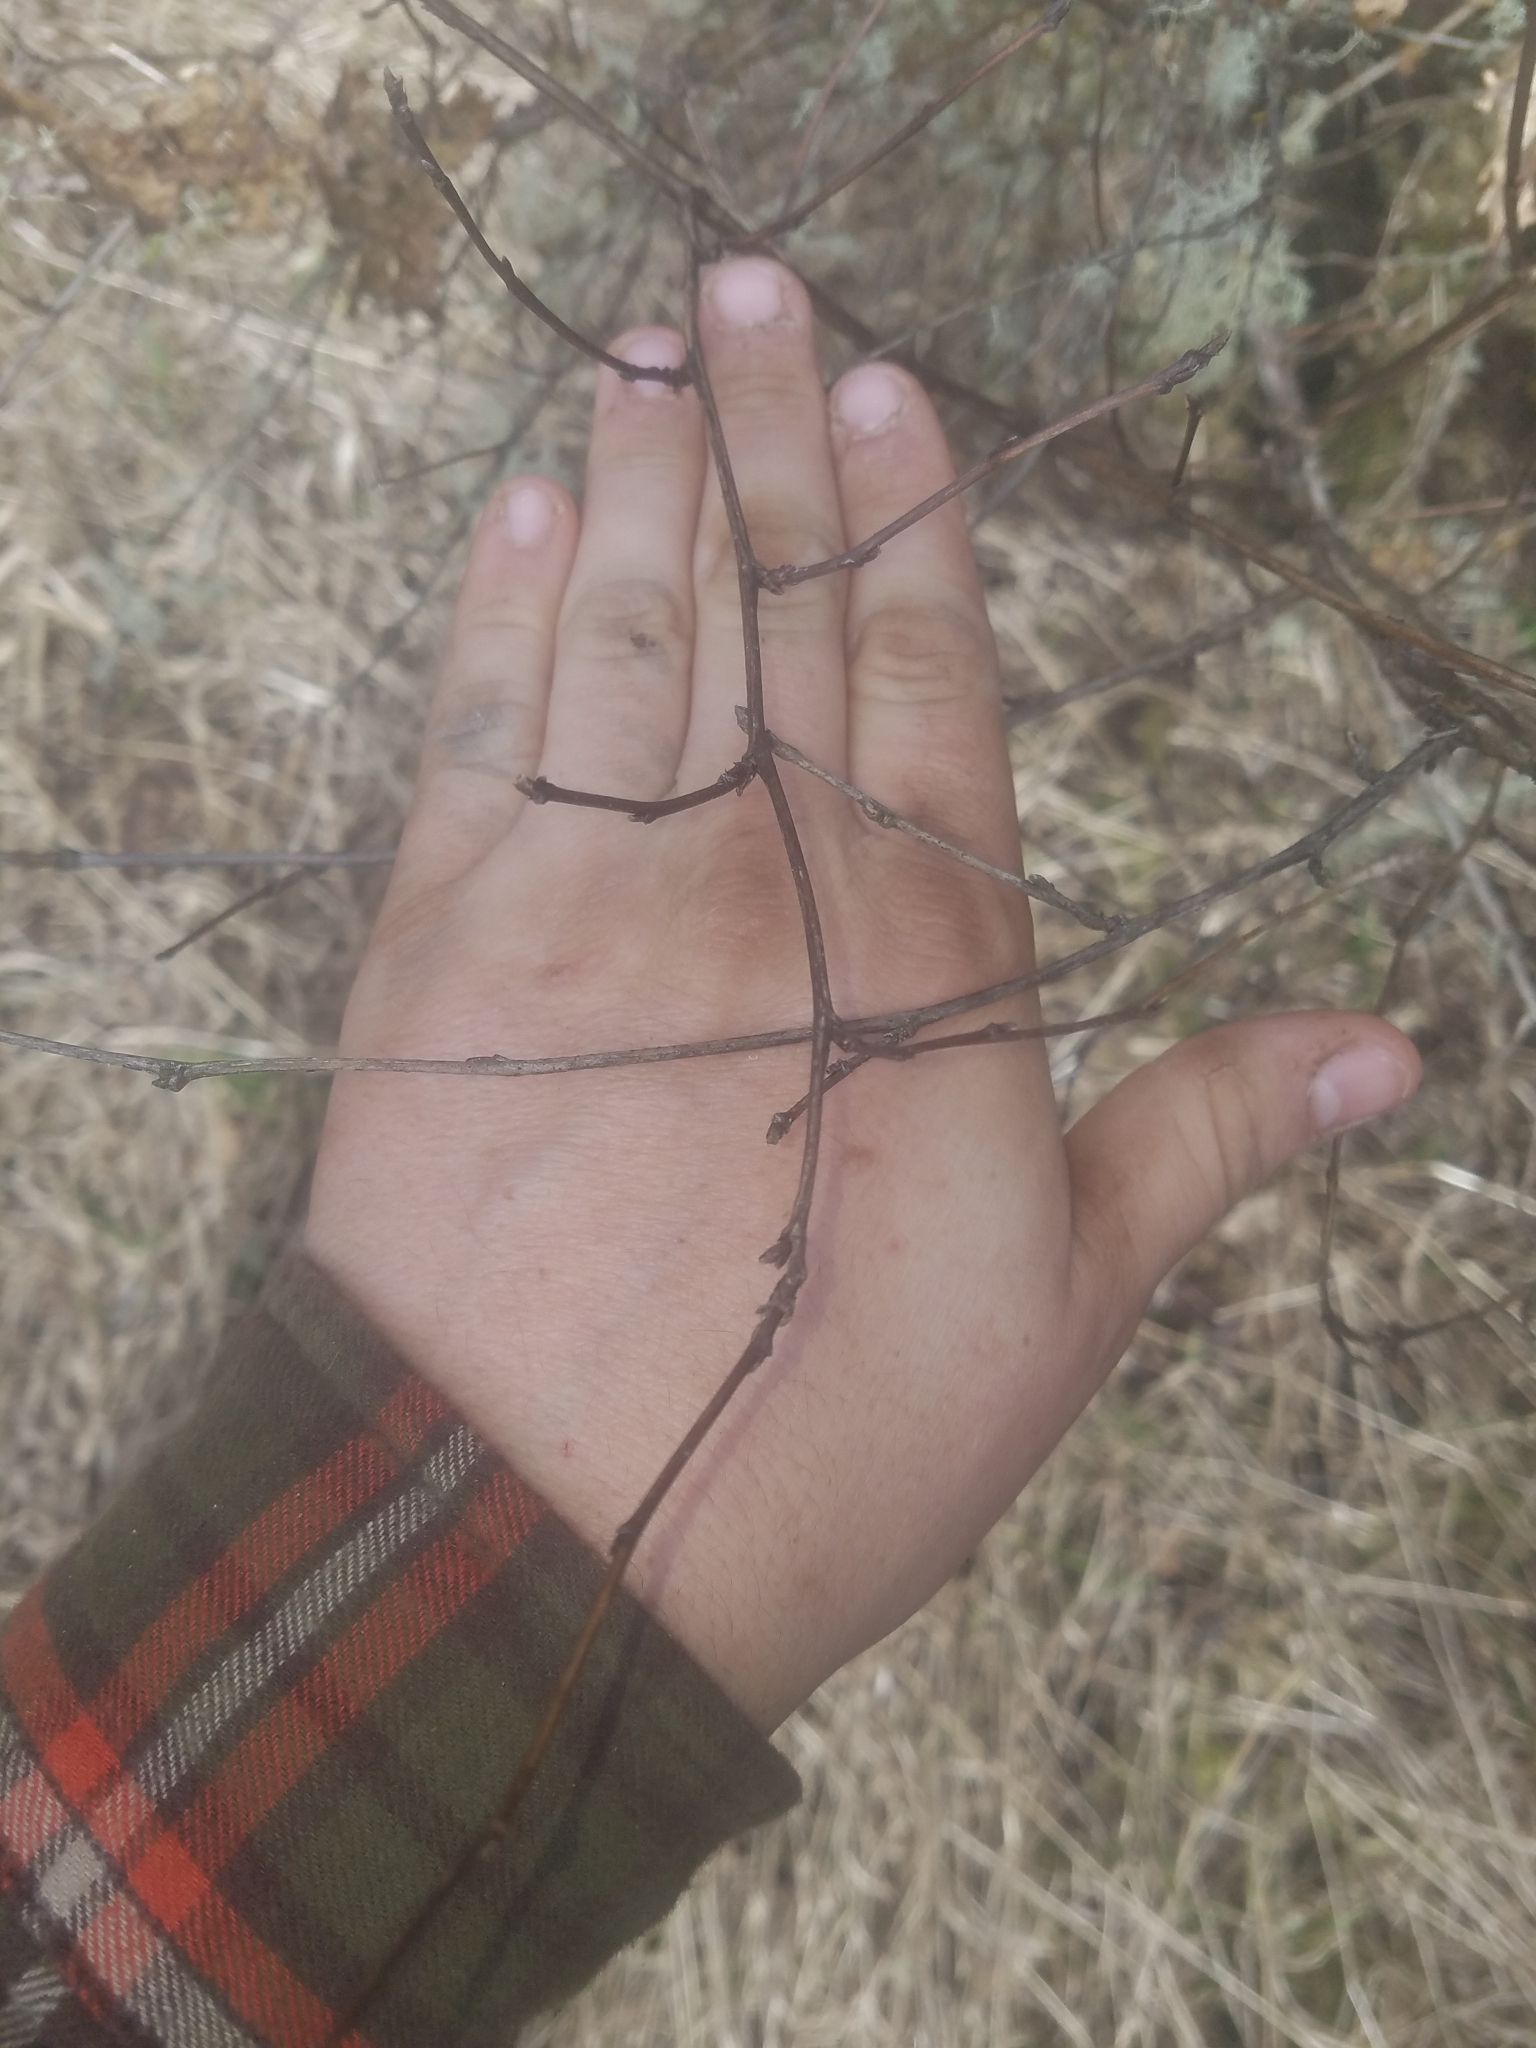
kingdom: Plantae
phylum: Tracheophyta
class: Magnoliopsida
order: Rosales
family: Rosaceae
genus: Physocarpus
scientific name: Physocarpus capitatus
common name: Pacific ninebark
